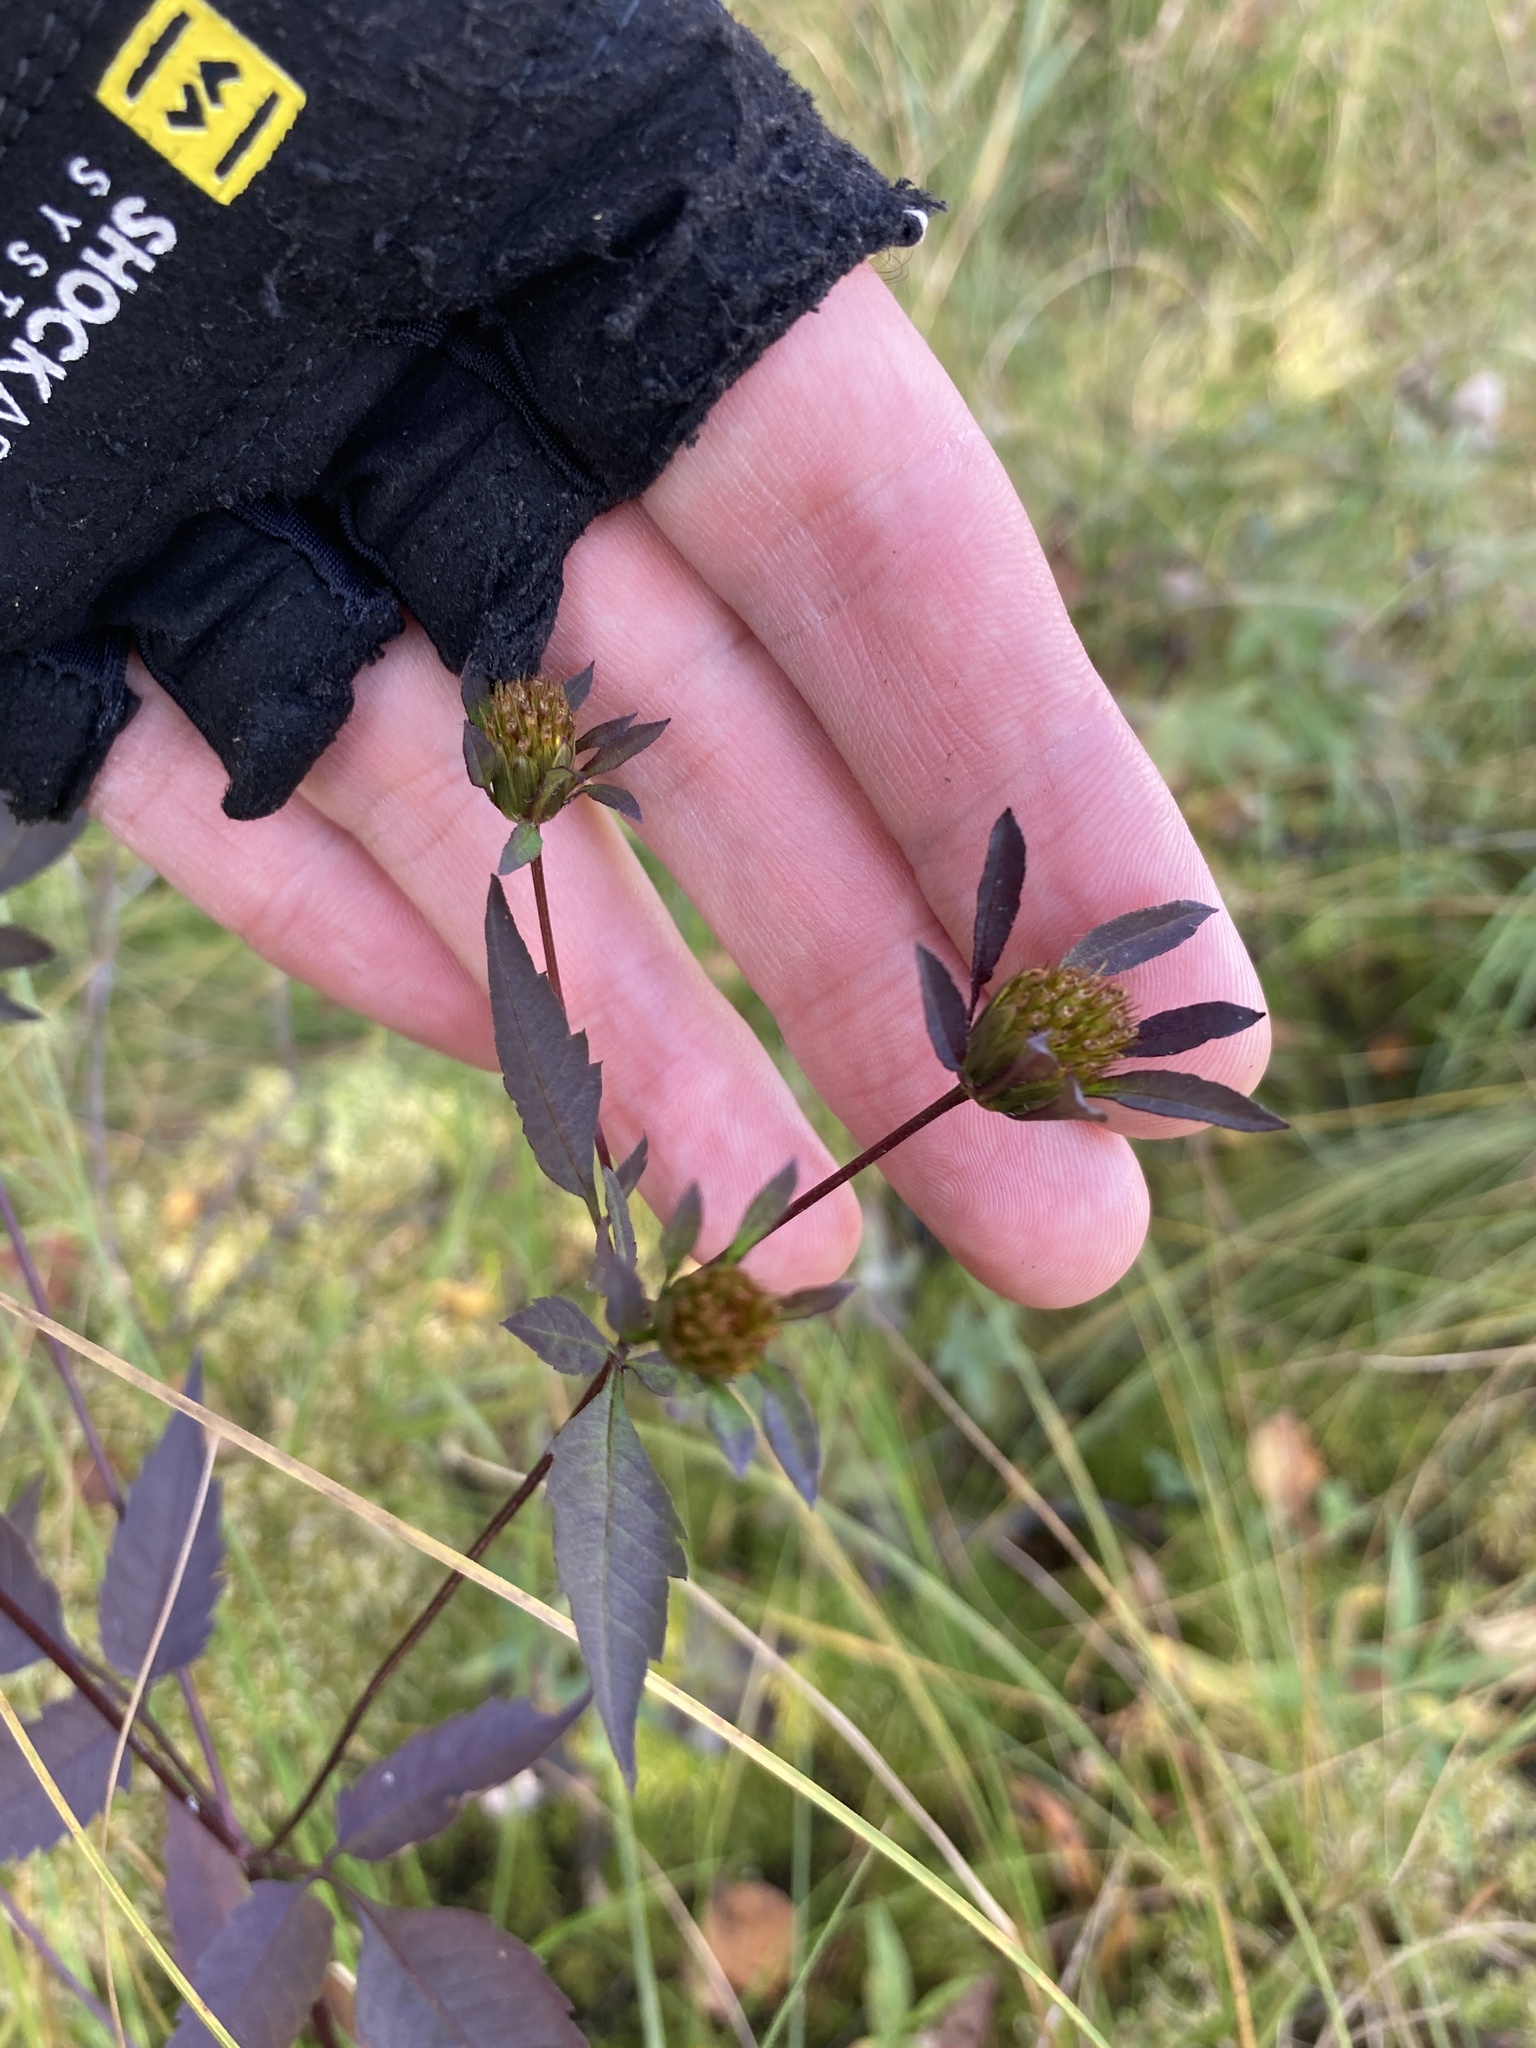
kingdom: Plantae
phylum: Tracheophyta
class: Magnoliopsida
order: Asterales
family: Asteraceae
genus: Bidens
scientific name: Bidens frondosa
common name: Beggarticks
